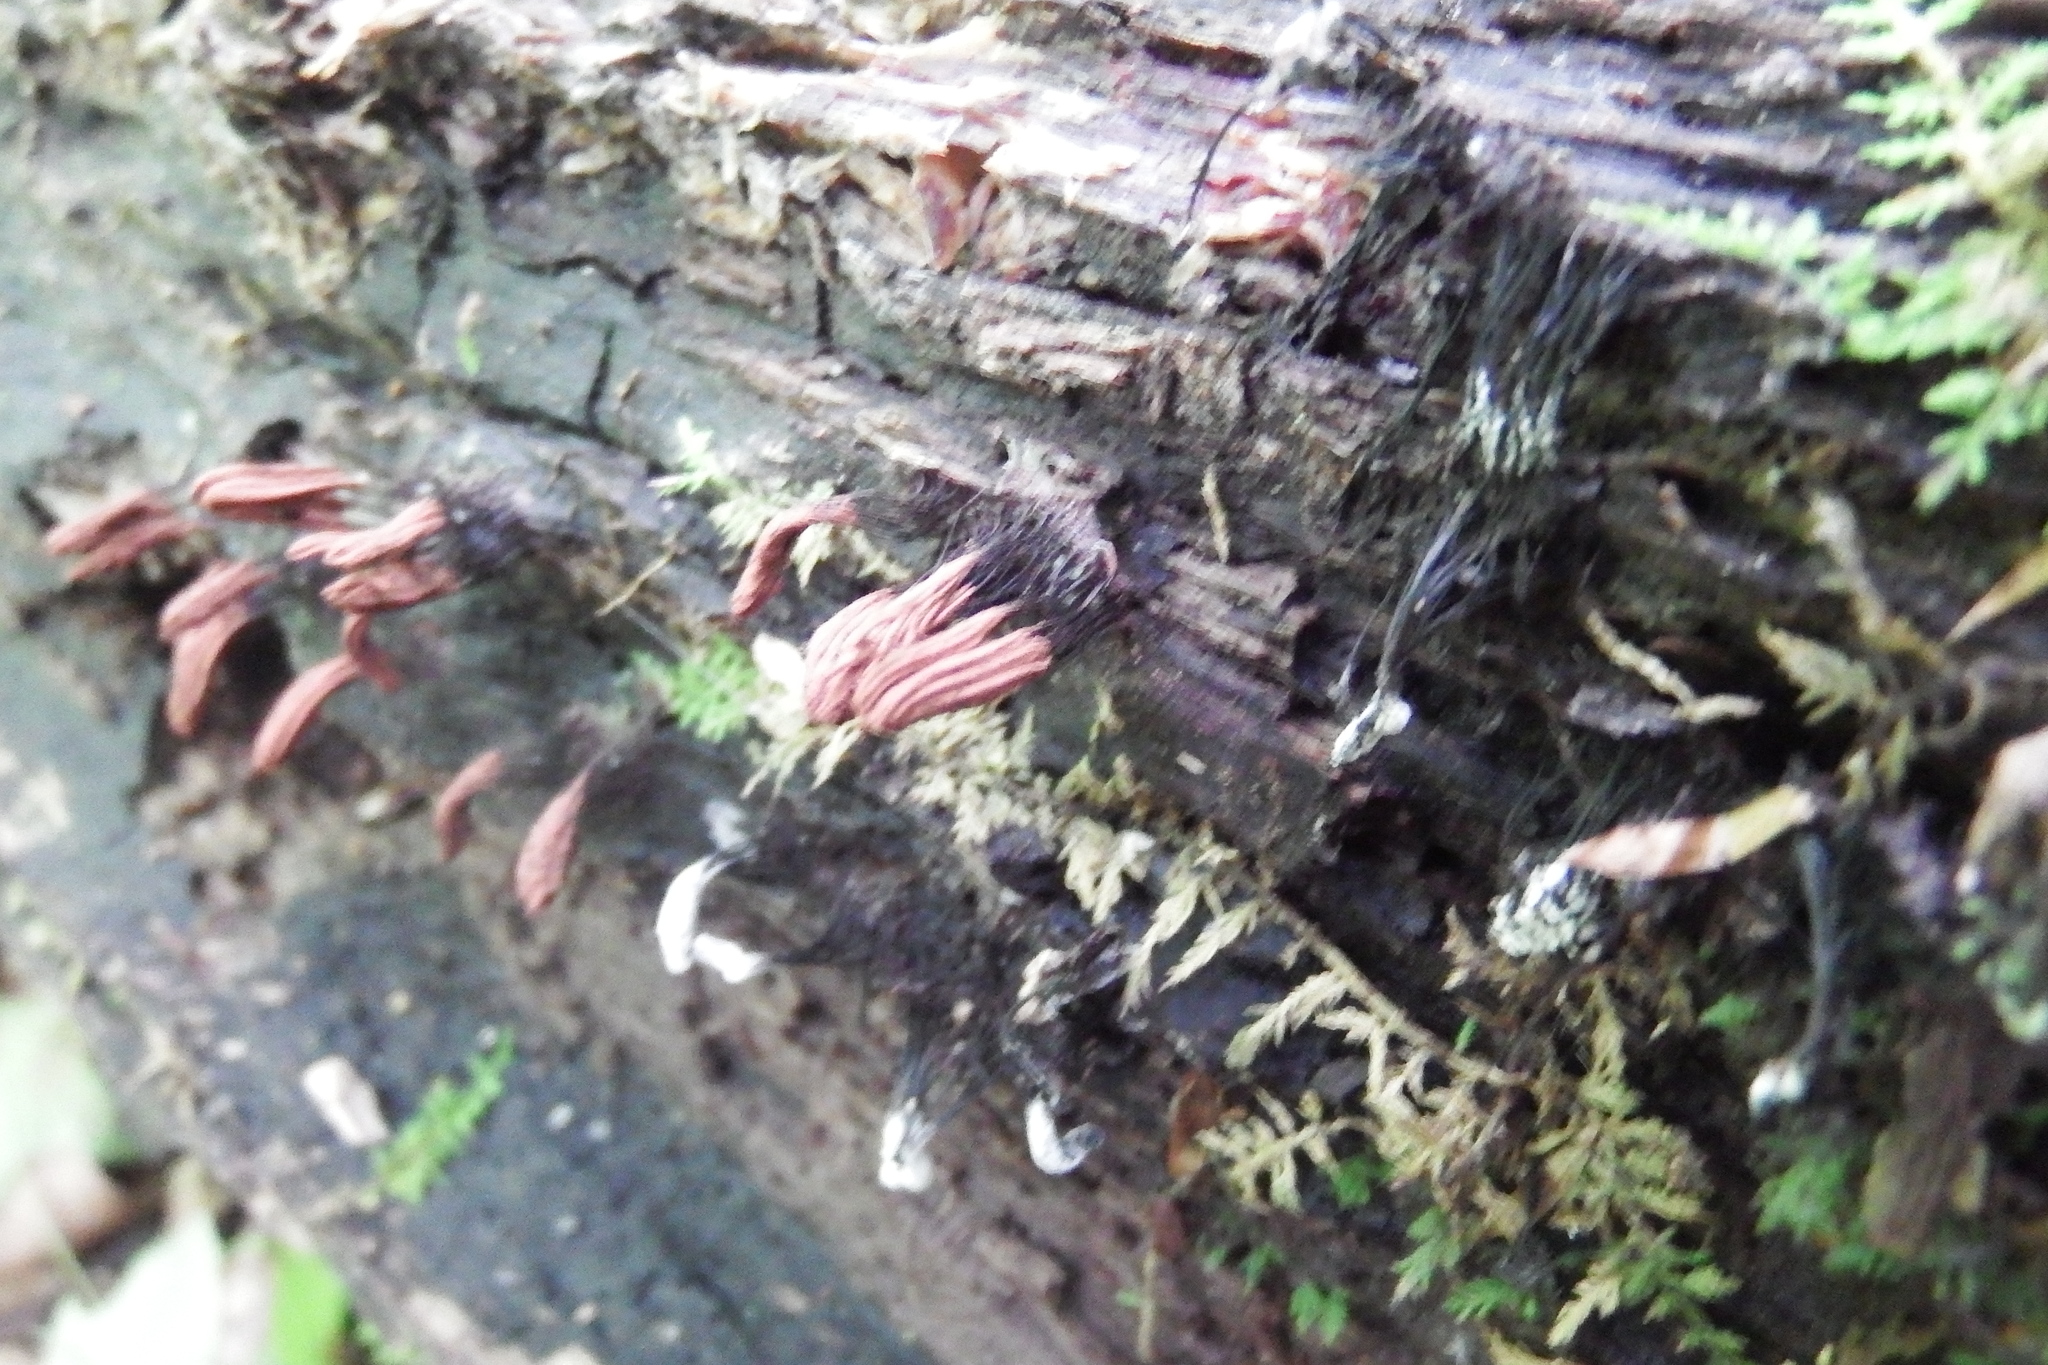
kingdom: Protozoa
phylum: Mycetozoa
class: Myxomycetes
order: Stemonitidales
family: Stemonitidaceae
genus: Stemonitis
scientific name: Stemonitis splendens
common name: Chocolate tube slime
